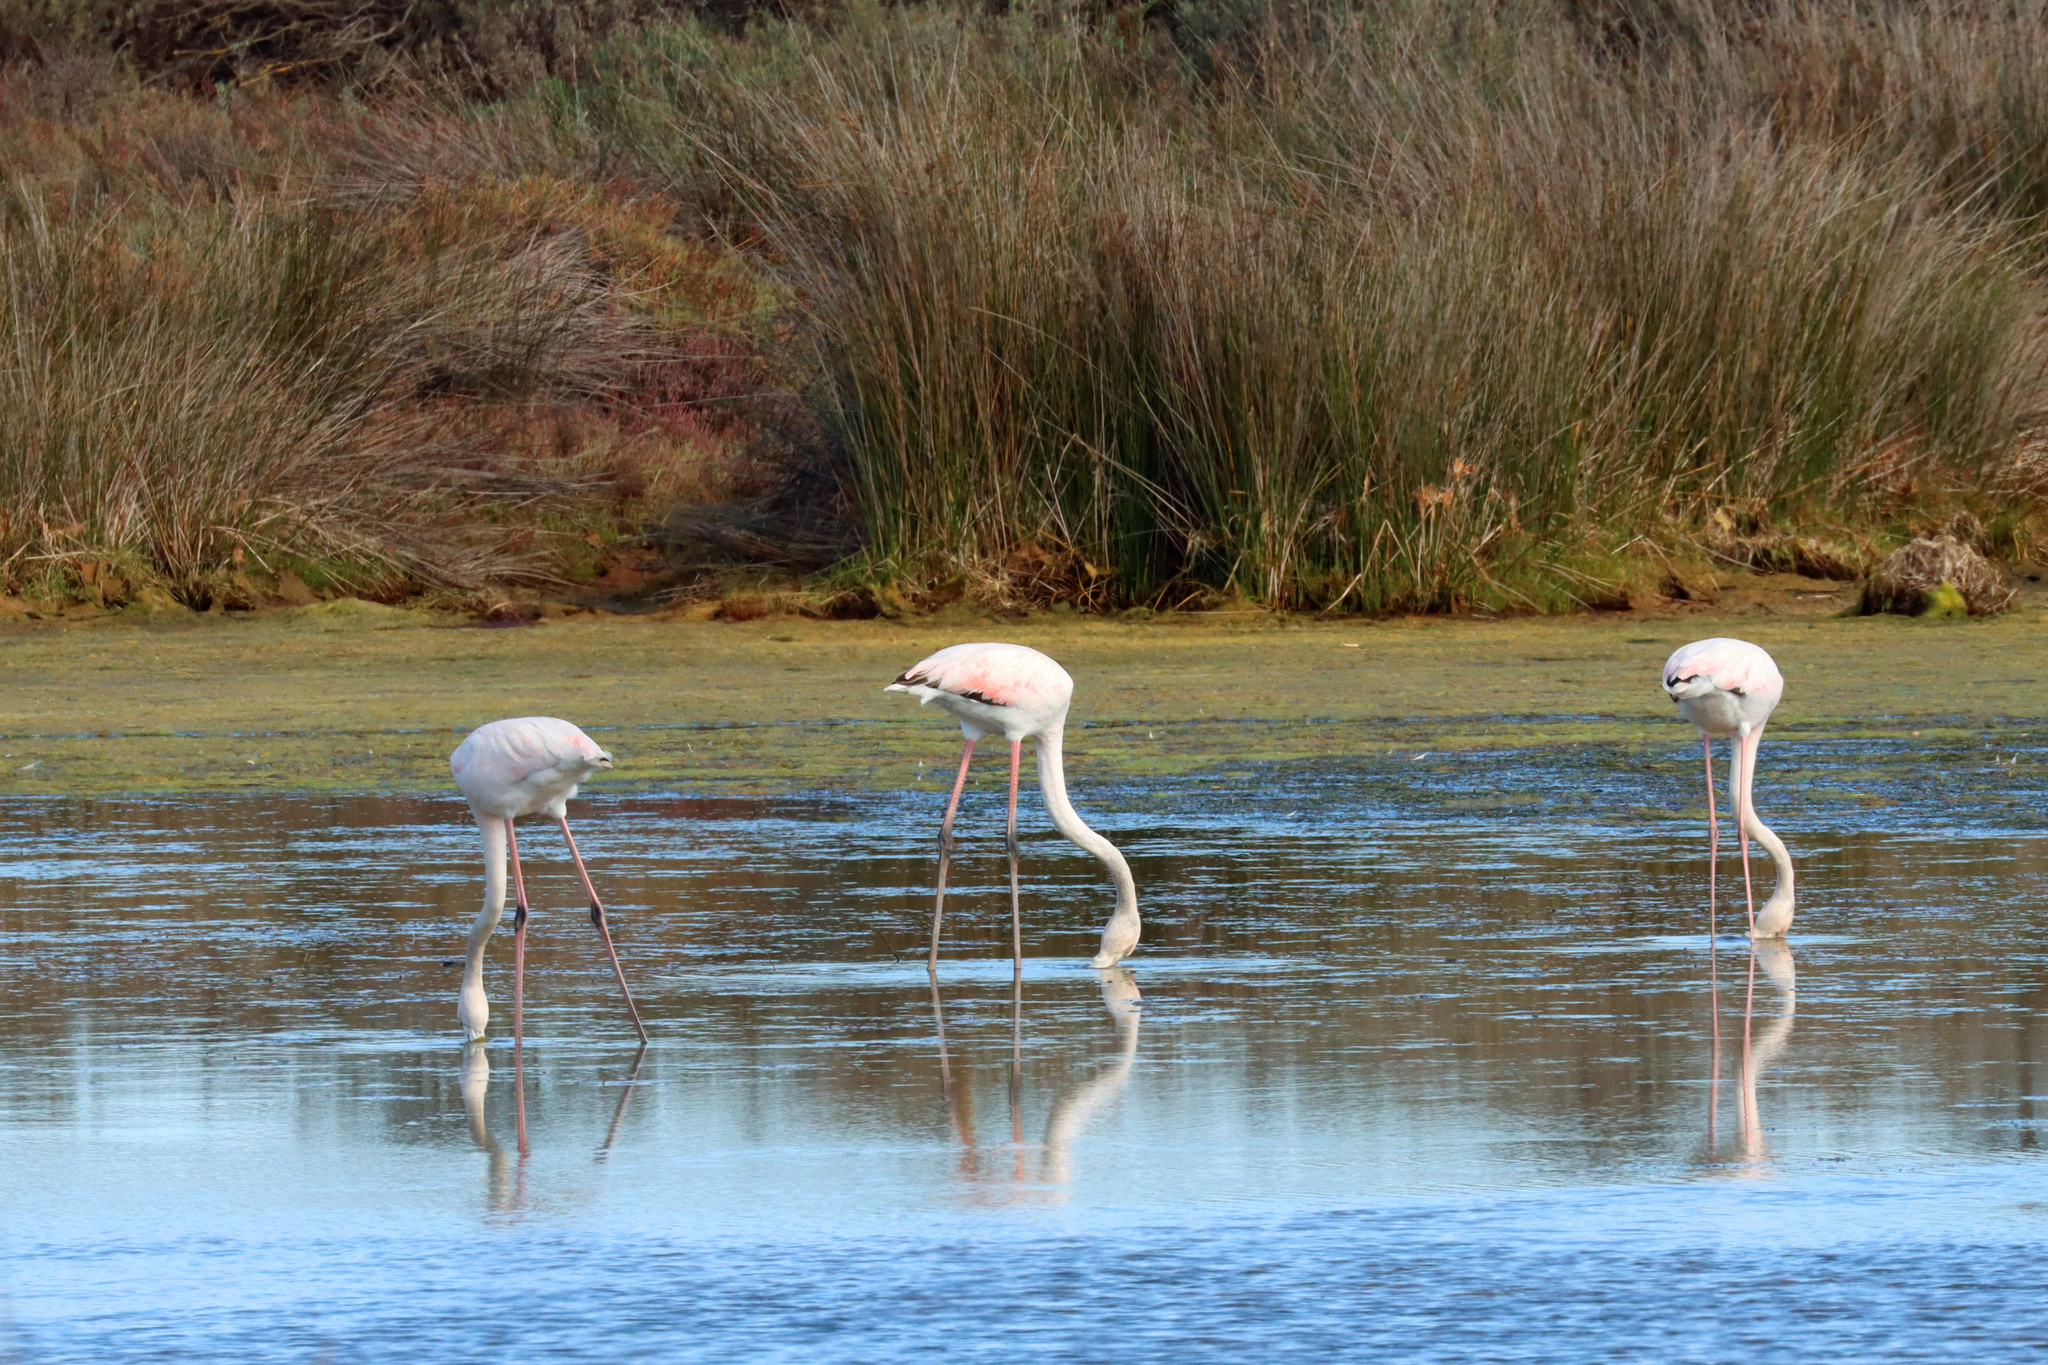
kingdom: Animalia
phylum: Chordata
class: Aves
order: Phoenicopteriformes
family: Phoenicopteridae
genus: Phoenicopterus
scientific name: Phoenicopterus roseus
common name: Greater flamingo
